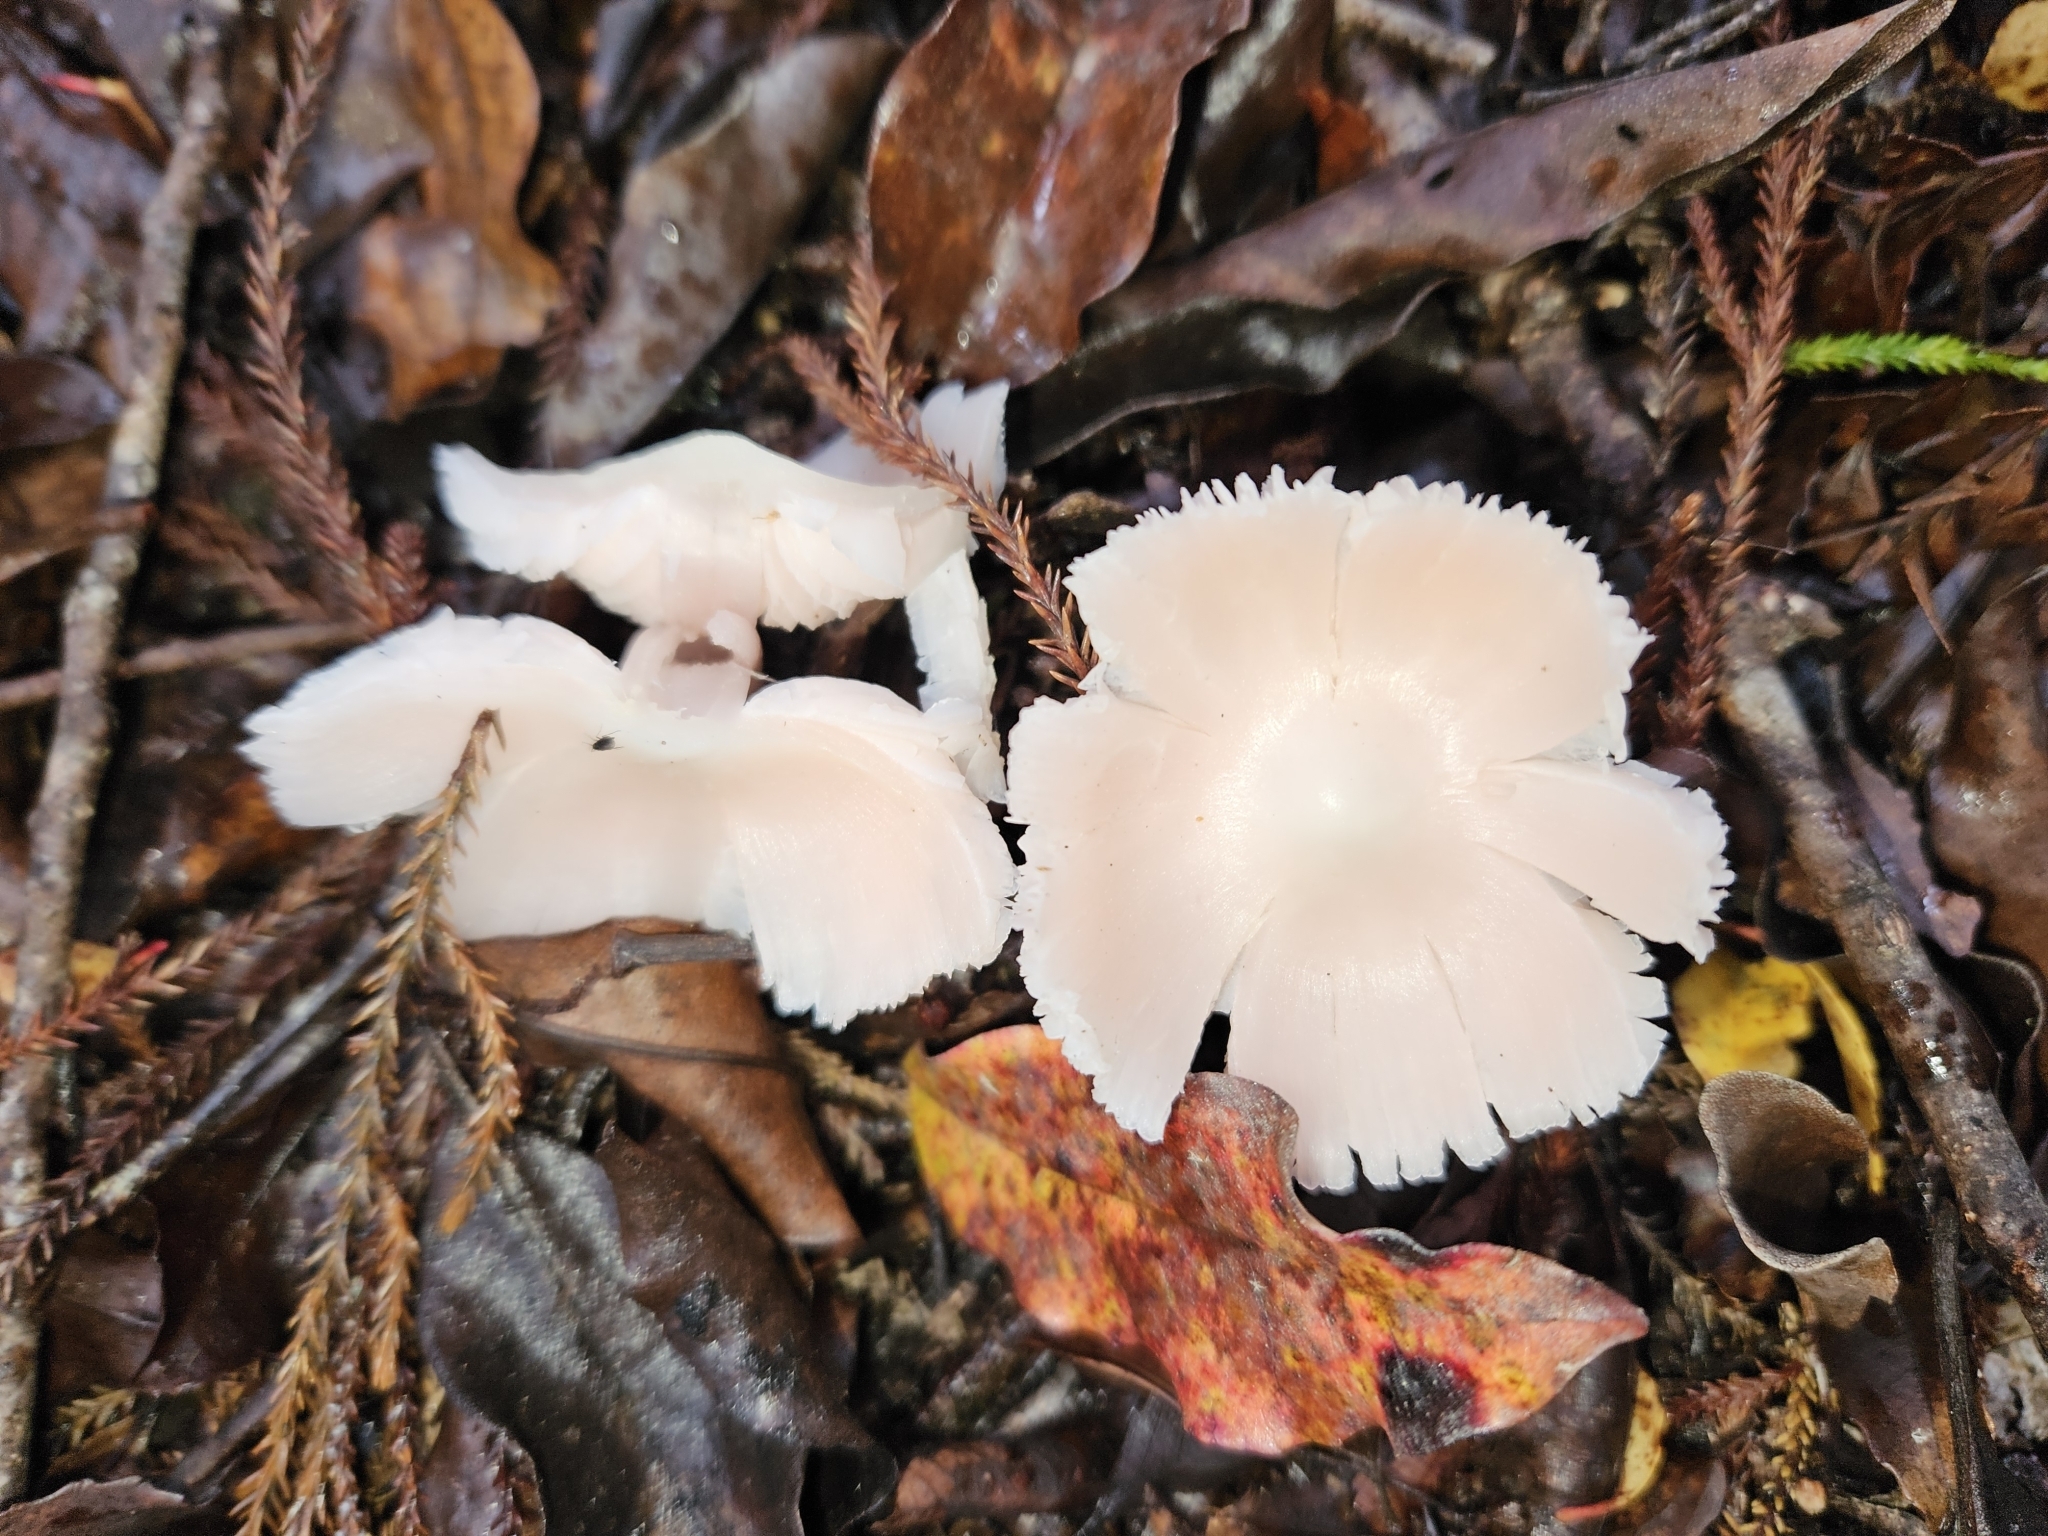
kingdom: Fungi
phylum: Basidiomycota
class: Agaricomycetes
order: Agaricales
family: Hygrophoraceae
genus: Humidicutis
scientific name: Humidicutis
